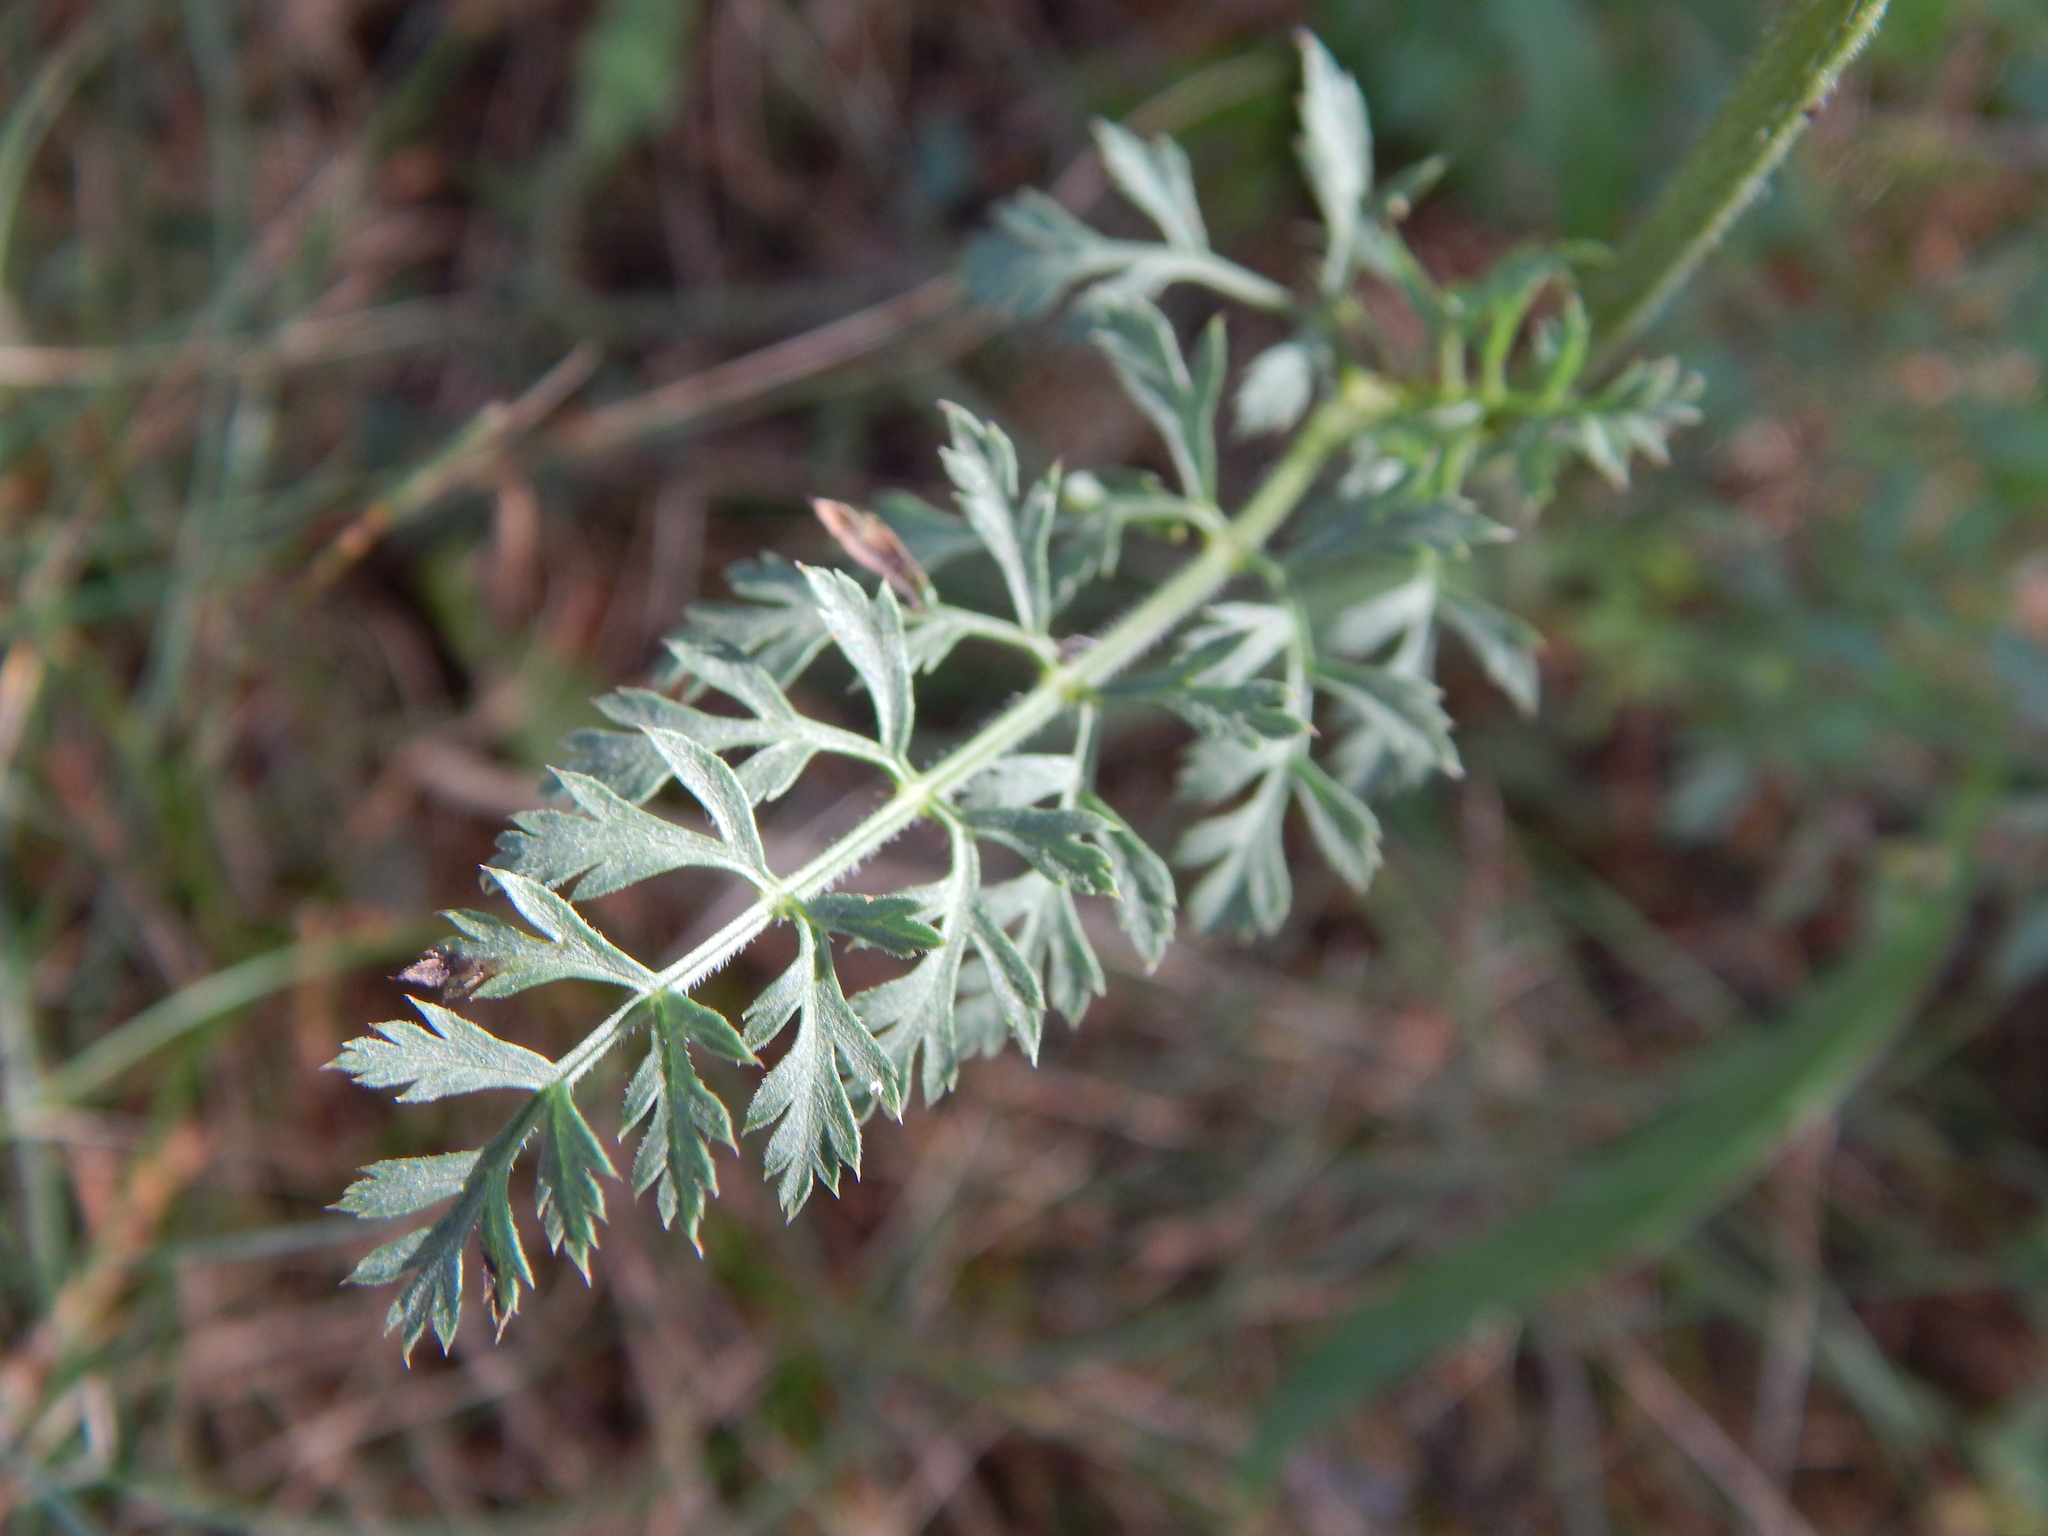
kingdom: Plantae
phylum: Tracheophyta
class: Magnoliopsida
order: Apiales
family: Apiaceae
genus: Daucus
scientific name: Daucus carota
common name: Wild carrot
